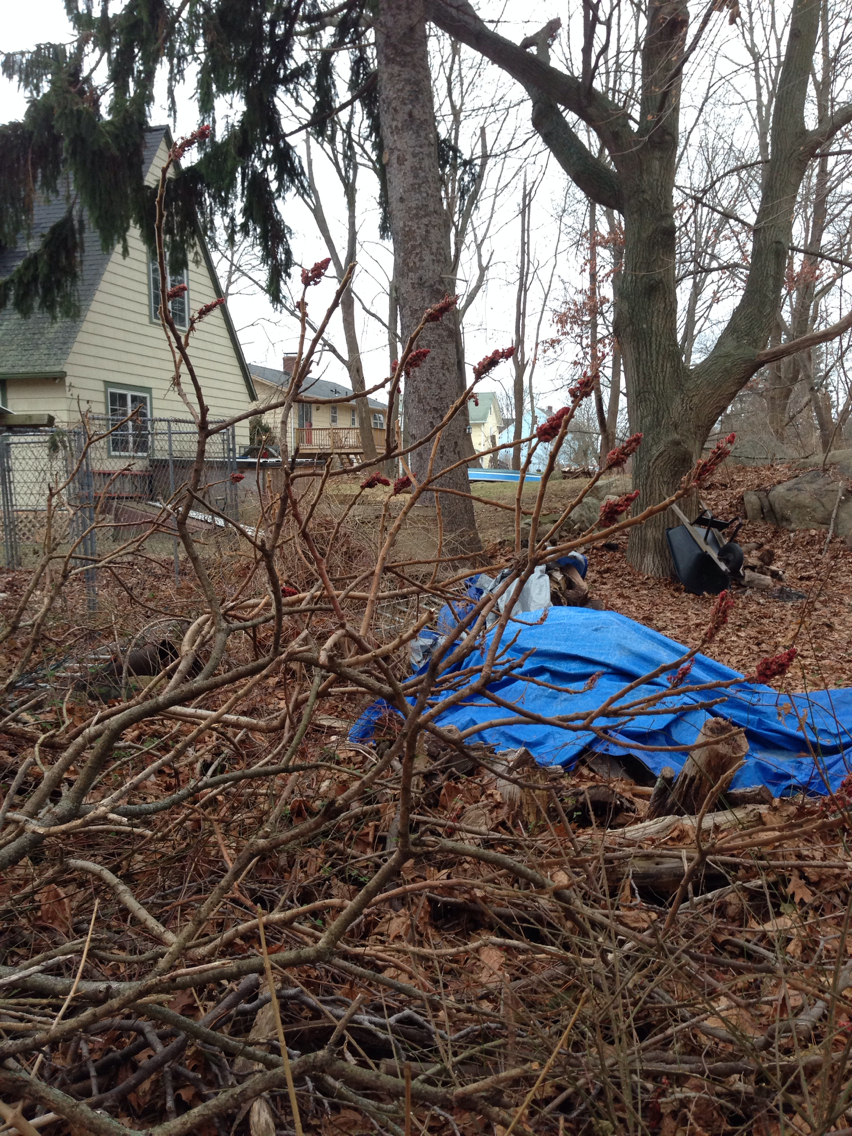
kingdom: Plantae
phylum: Tracheophyta
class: Magnoliopsida
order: Sapindales
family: Anacardiaceae
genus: Rhus
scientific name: Rhus typhina
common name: Staghorn sumac
